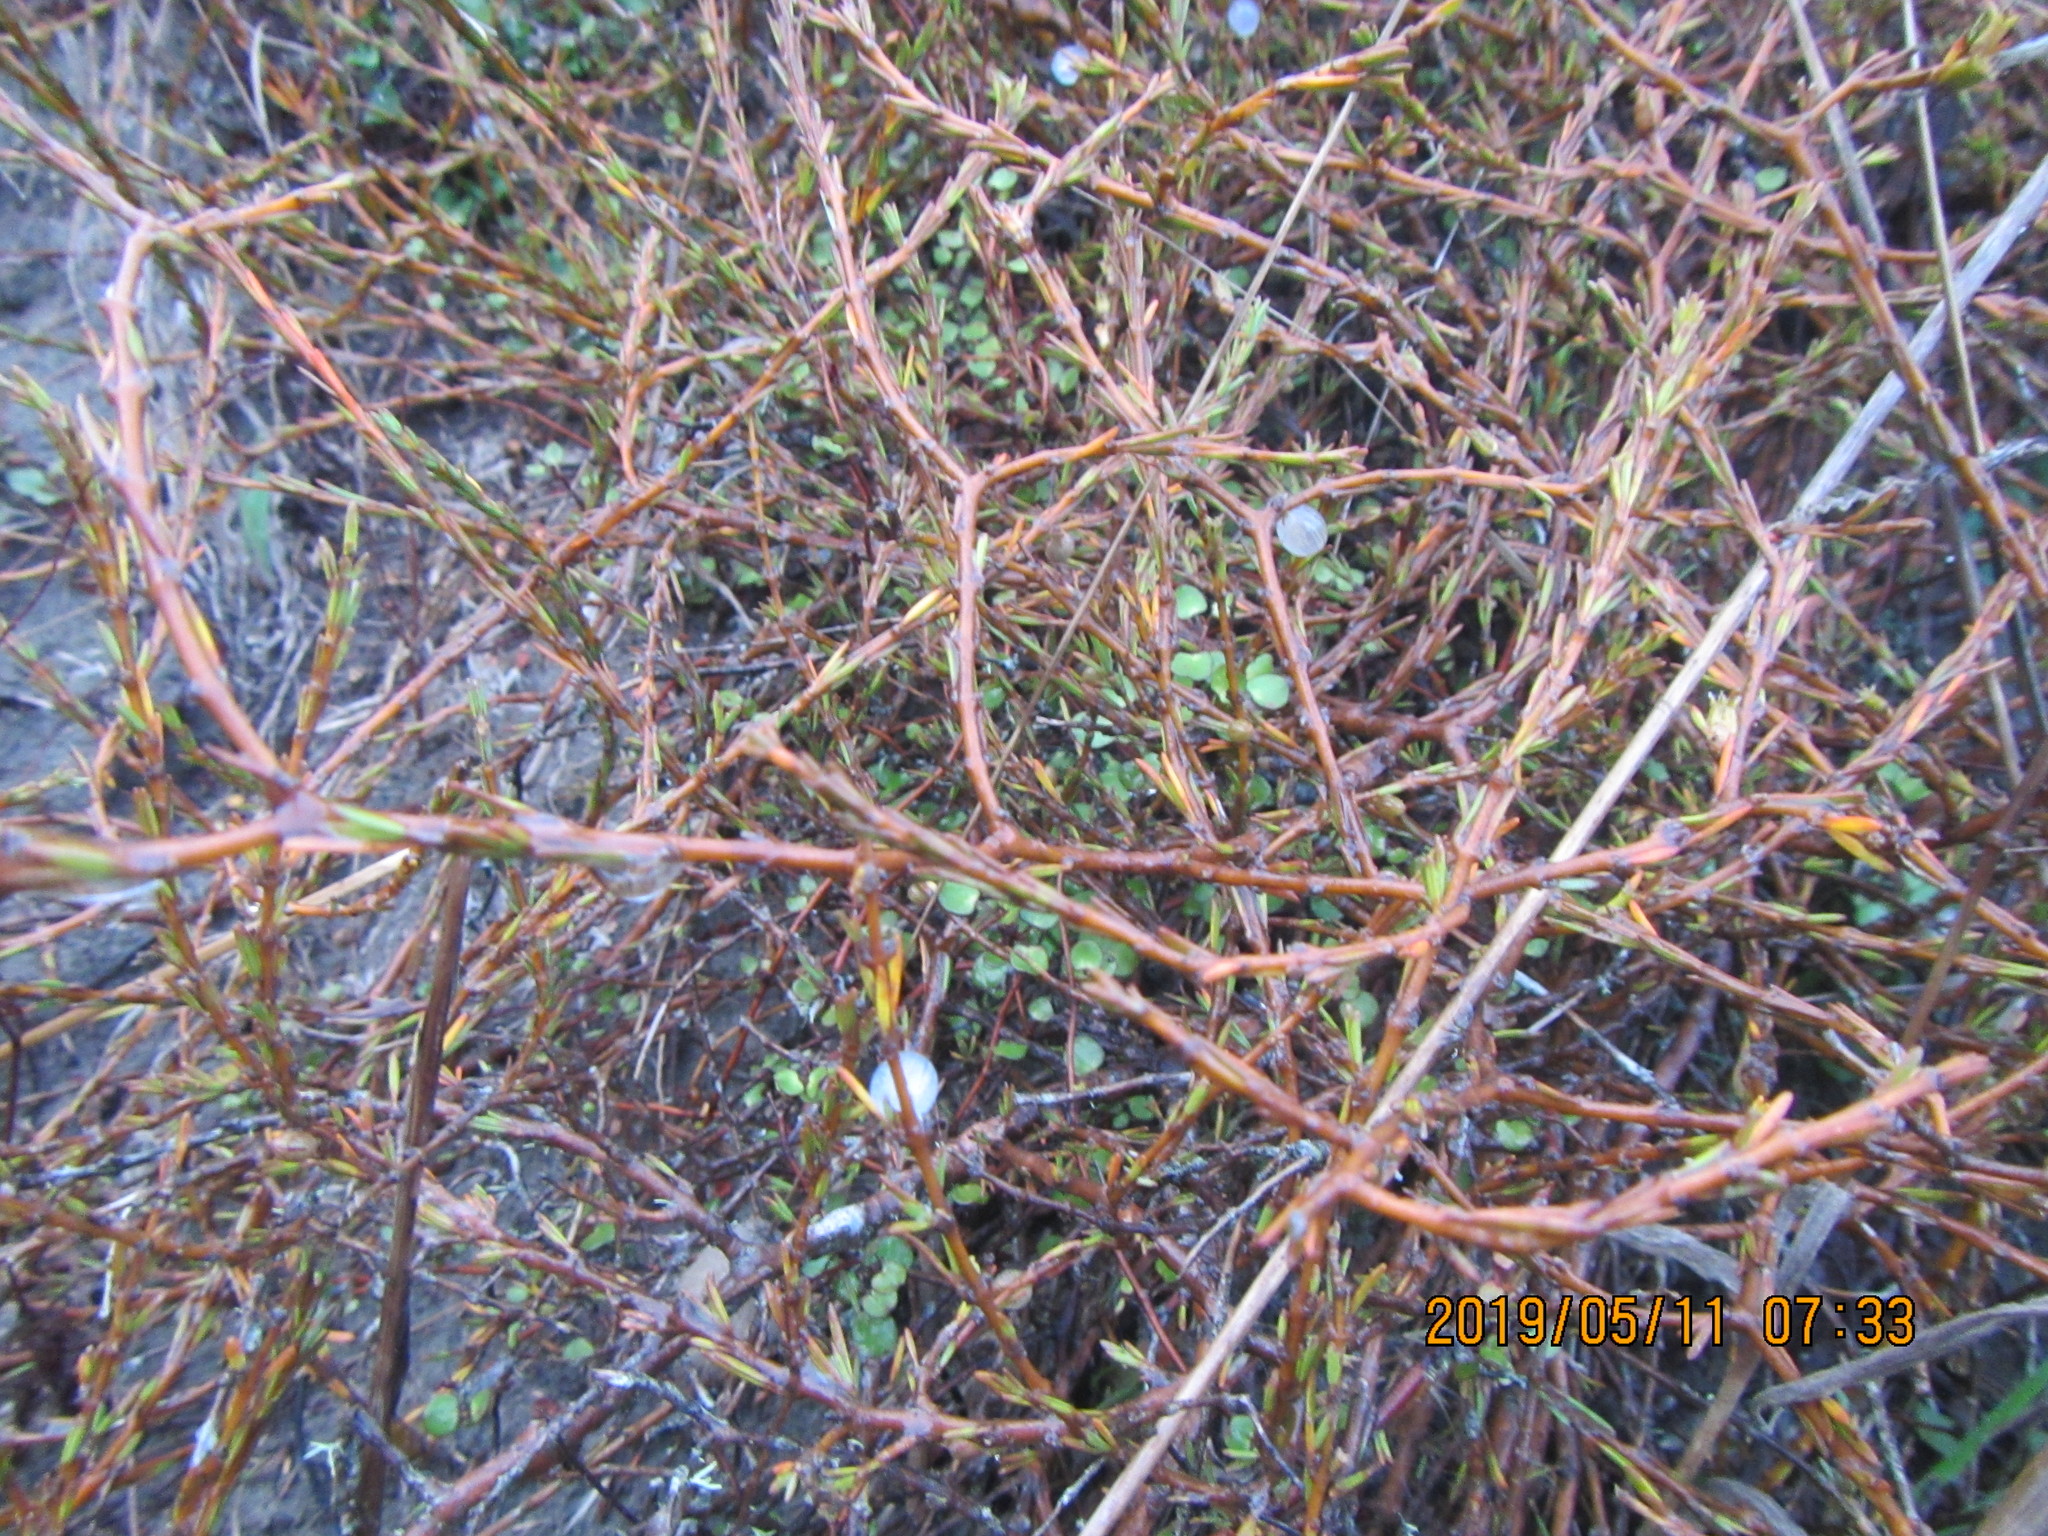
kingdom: Plantae
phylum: Tracheophyta
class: Magnoliopsida
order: Gentianales
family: Rubiaceae
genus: Coprosma
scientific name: Coprosma acerosa
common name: Sand coprosma
